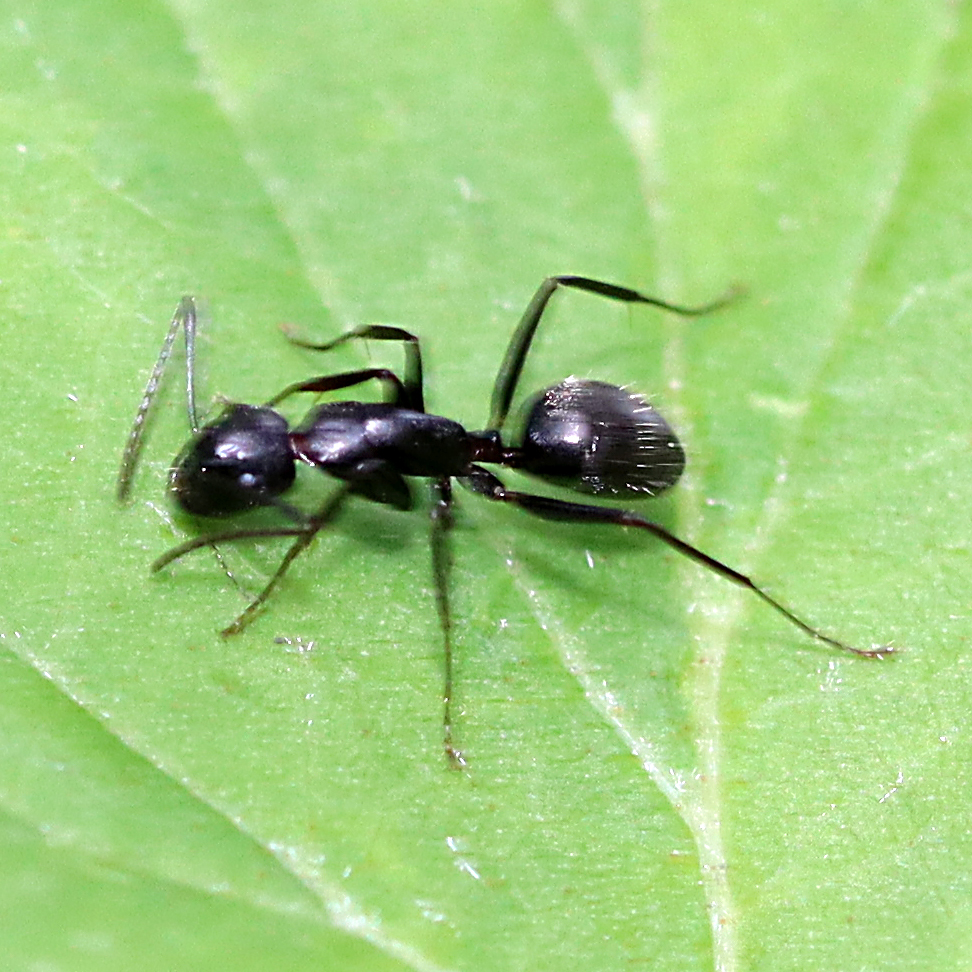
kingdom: Animalia
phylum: Arthropoda
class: Insecta
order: Hymenoptera
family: Formicidae
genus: Camponotus
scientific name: Camponotus pennsylvanicus
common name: Black carpenter ant
